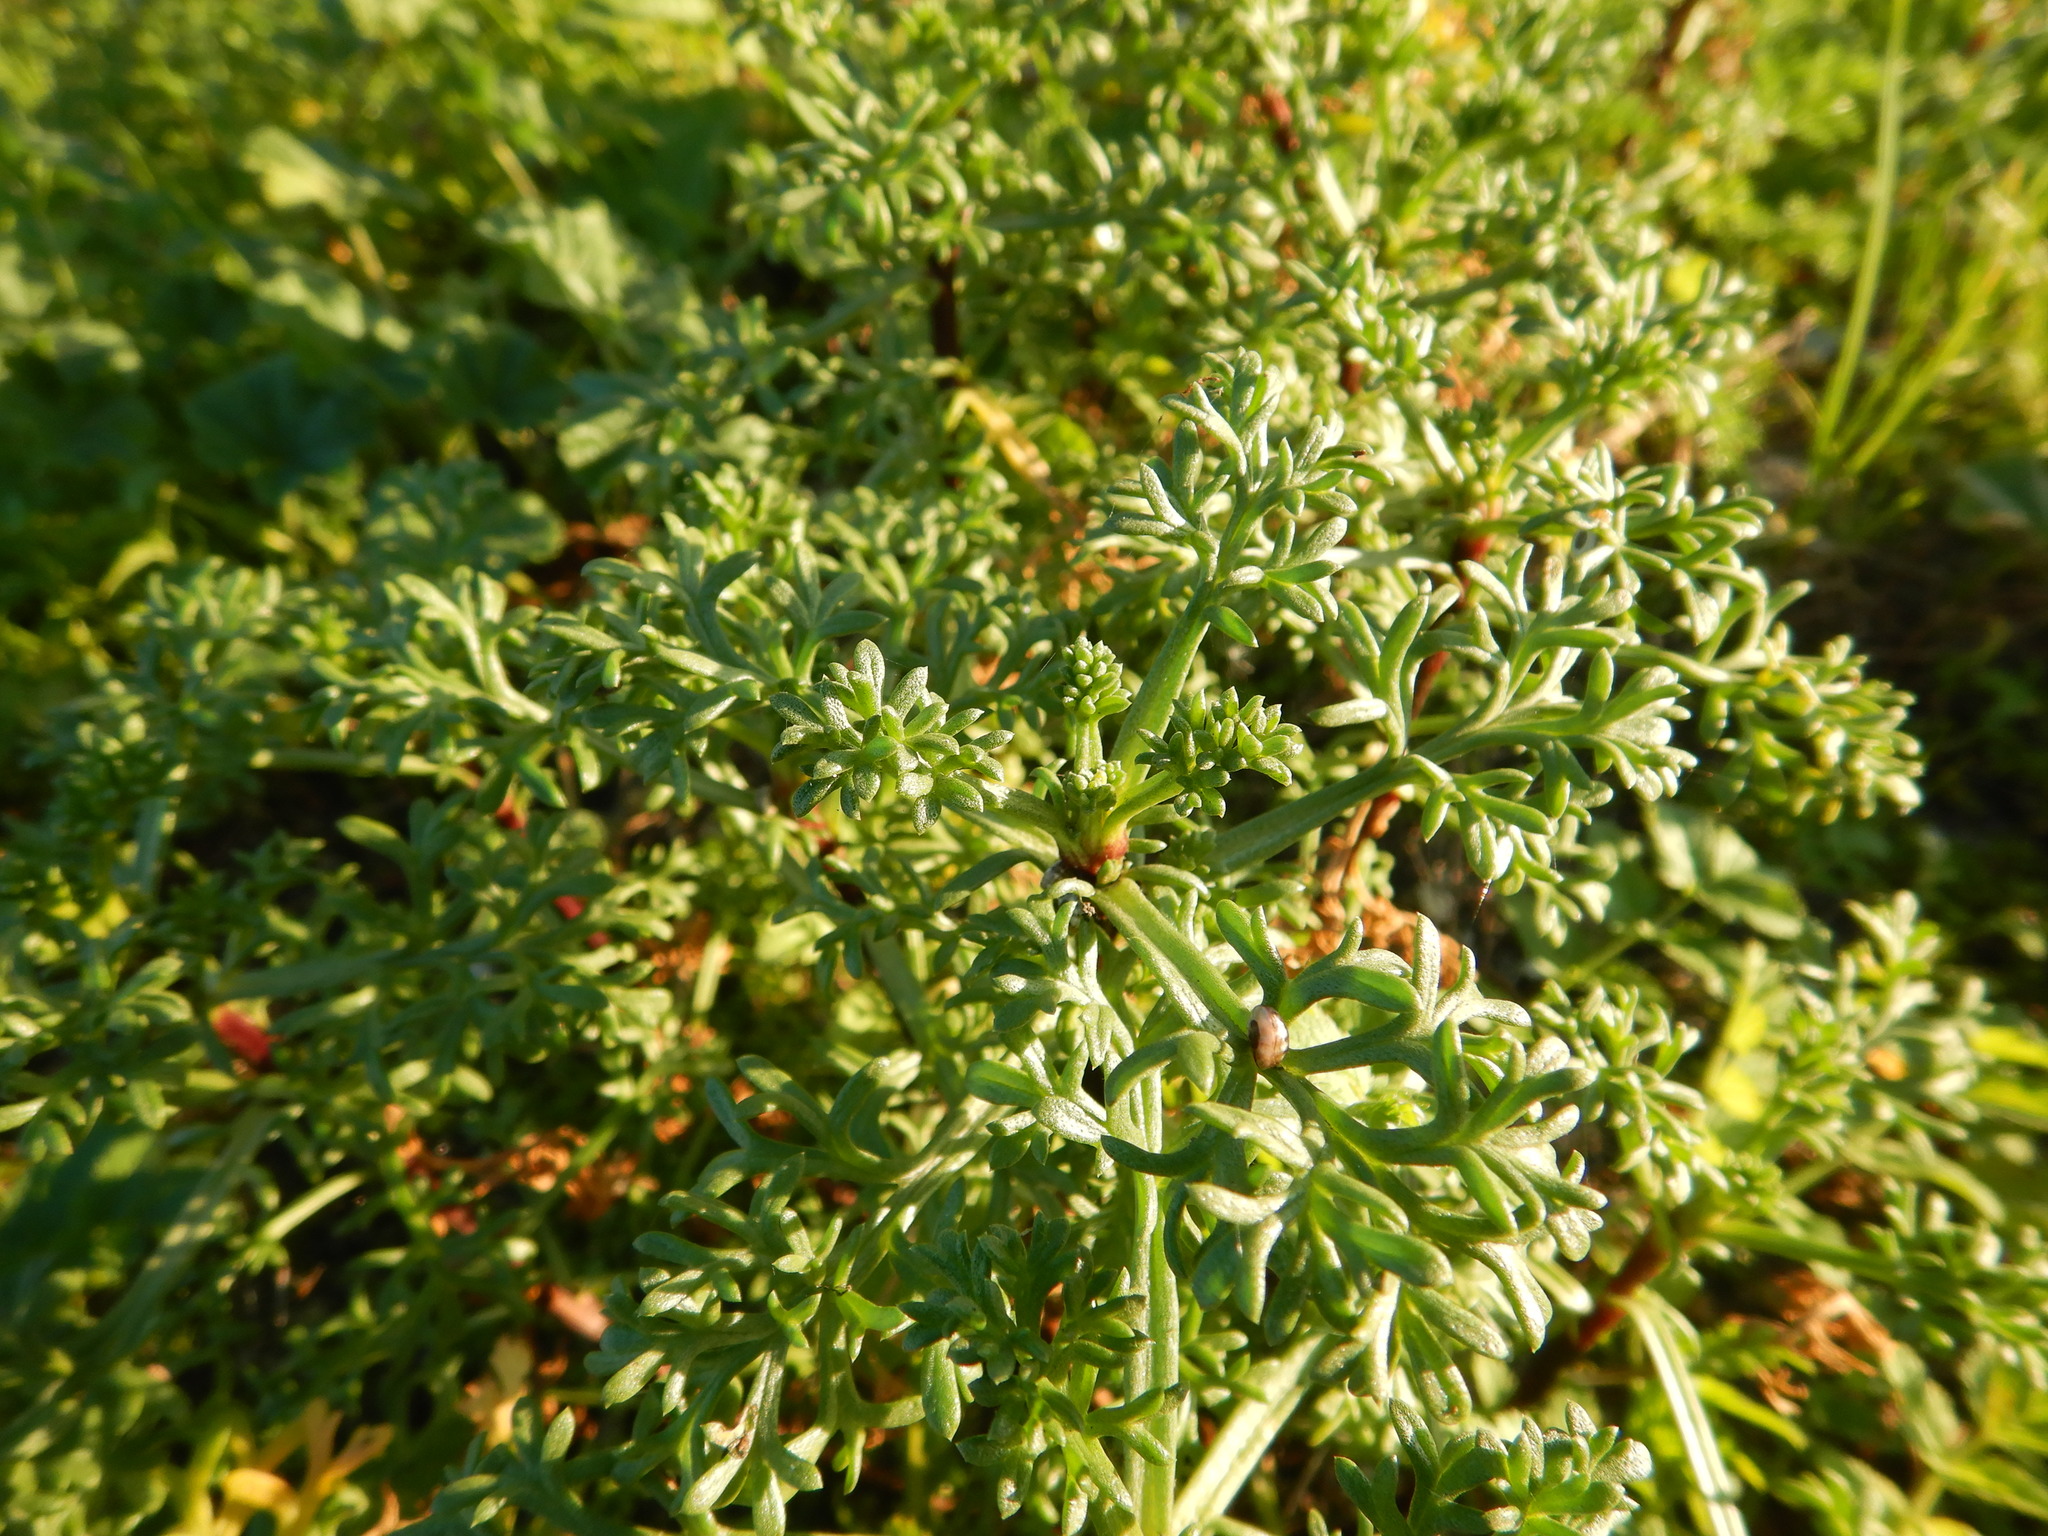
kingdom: Plantae
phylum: Tracheophyta
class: Magnoliopsida
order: Asterales
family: Asteraceae
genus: Artemisia
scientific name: Artemisia crithmifolia
